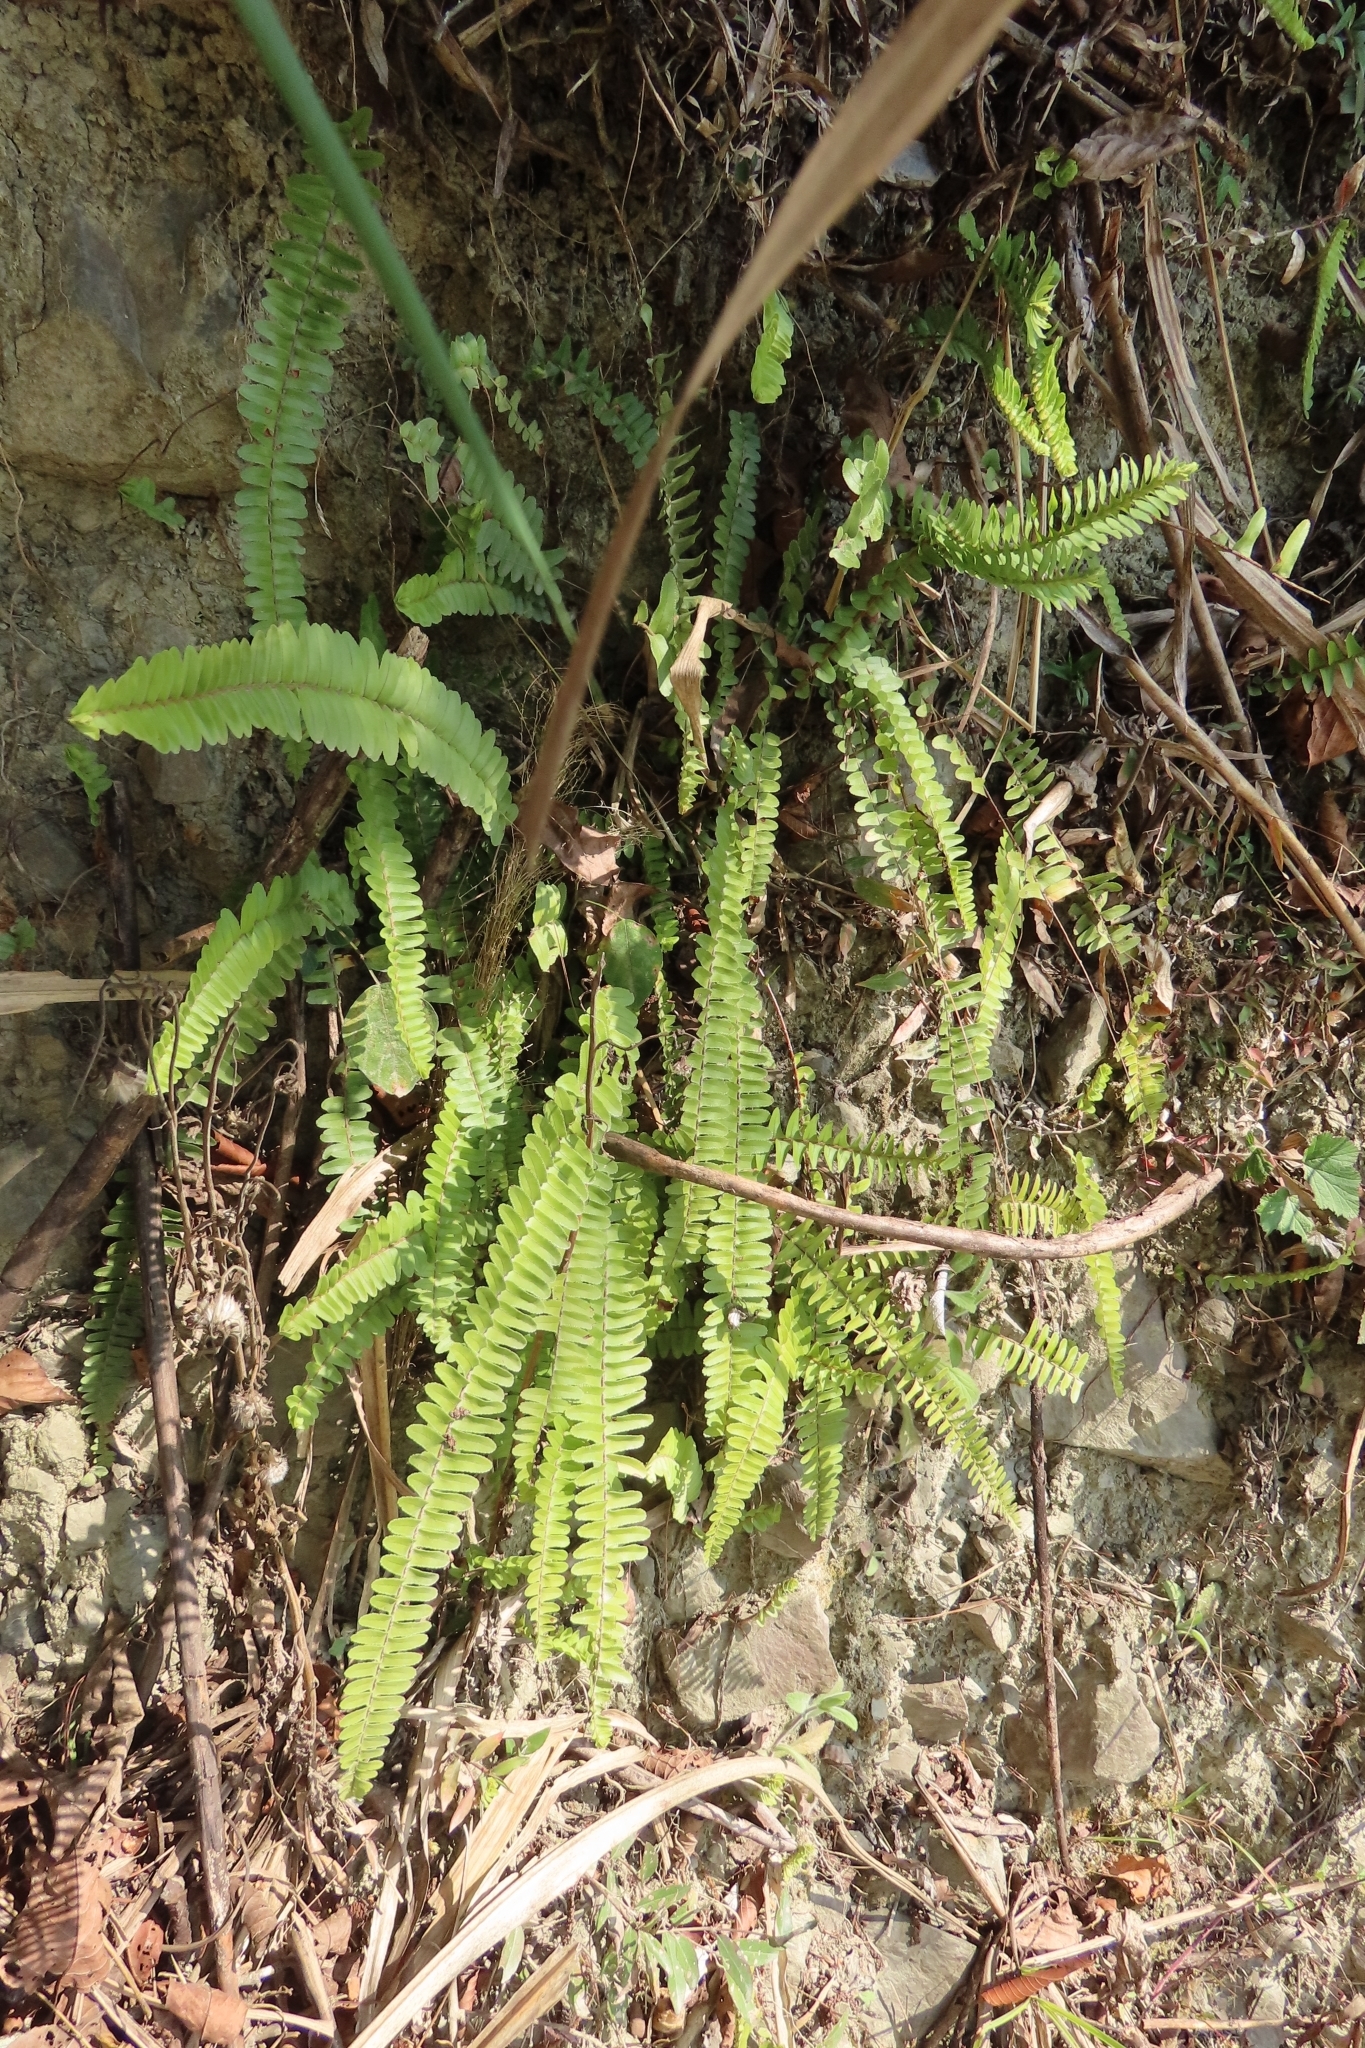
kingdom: Plantae
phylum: Tracheophyta
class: Polypodiopsida
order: Polypodiales
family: Nephrolepidaceae
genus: Nephrolepis
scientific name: Nephrolepis cordifolia
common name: Narrow swordfern
